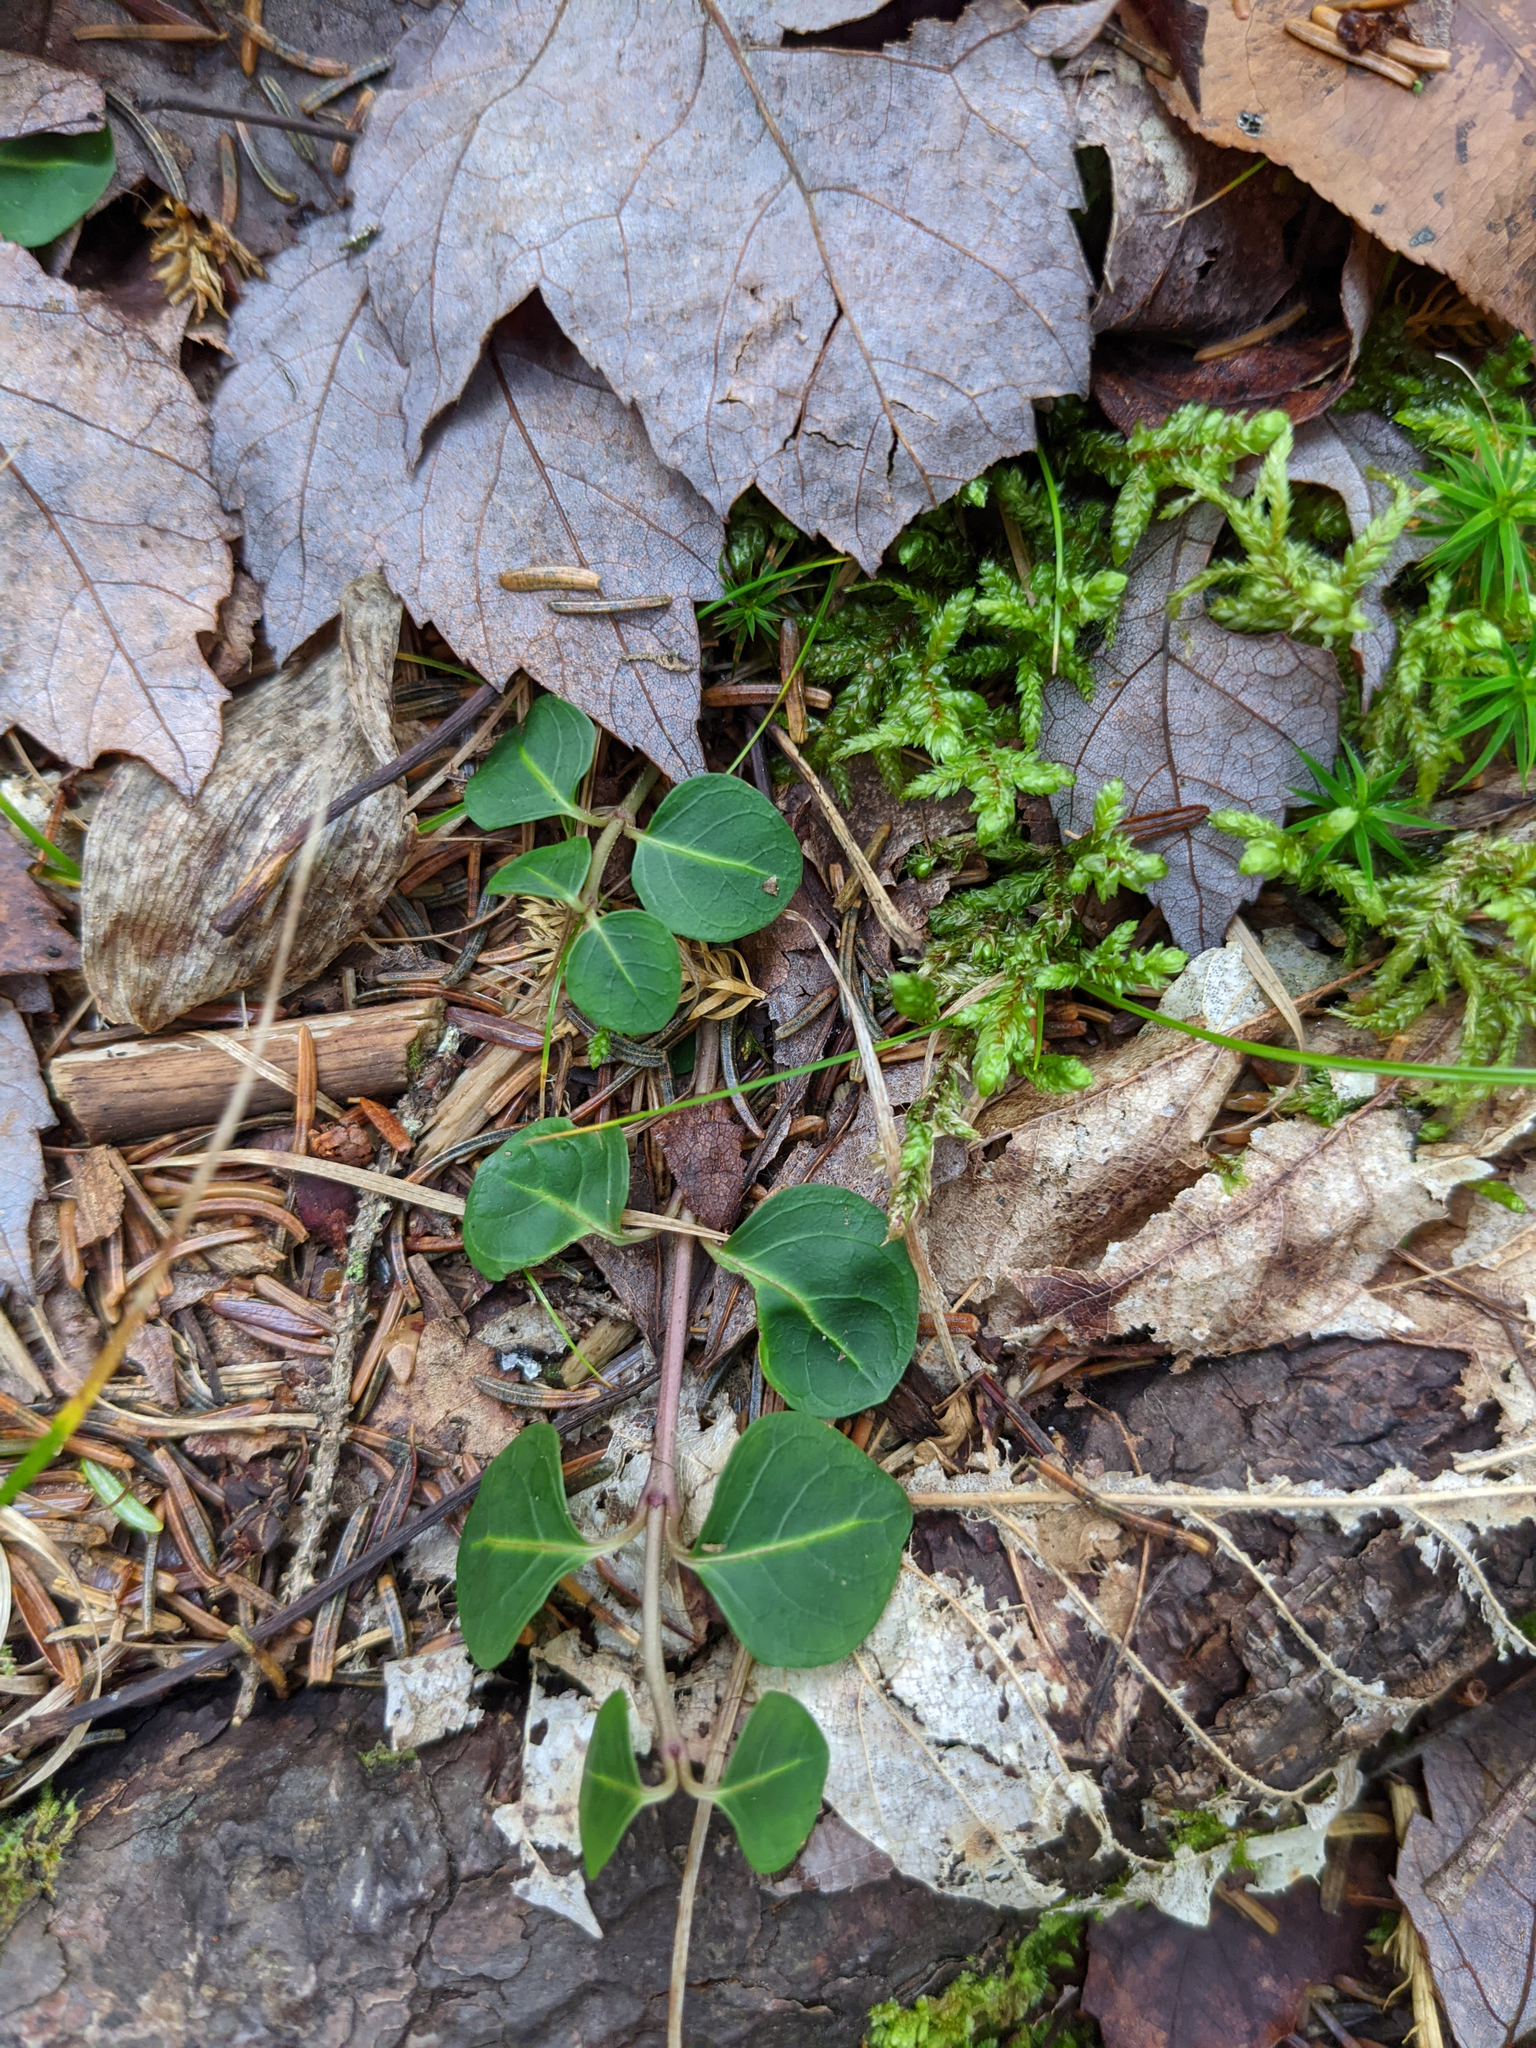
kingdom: Plantae
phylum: Tracheophyta
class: Magnoliopsida
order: Gentianales
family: Rubiaceae
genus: Mitchella
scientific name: Mitchella repens
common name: Partridge-berry
